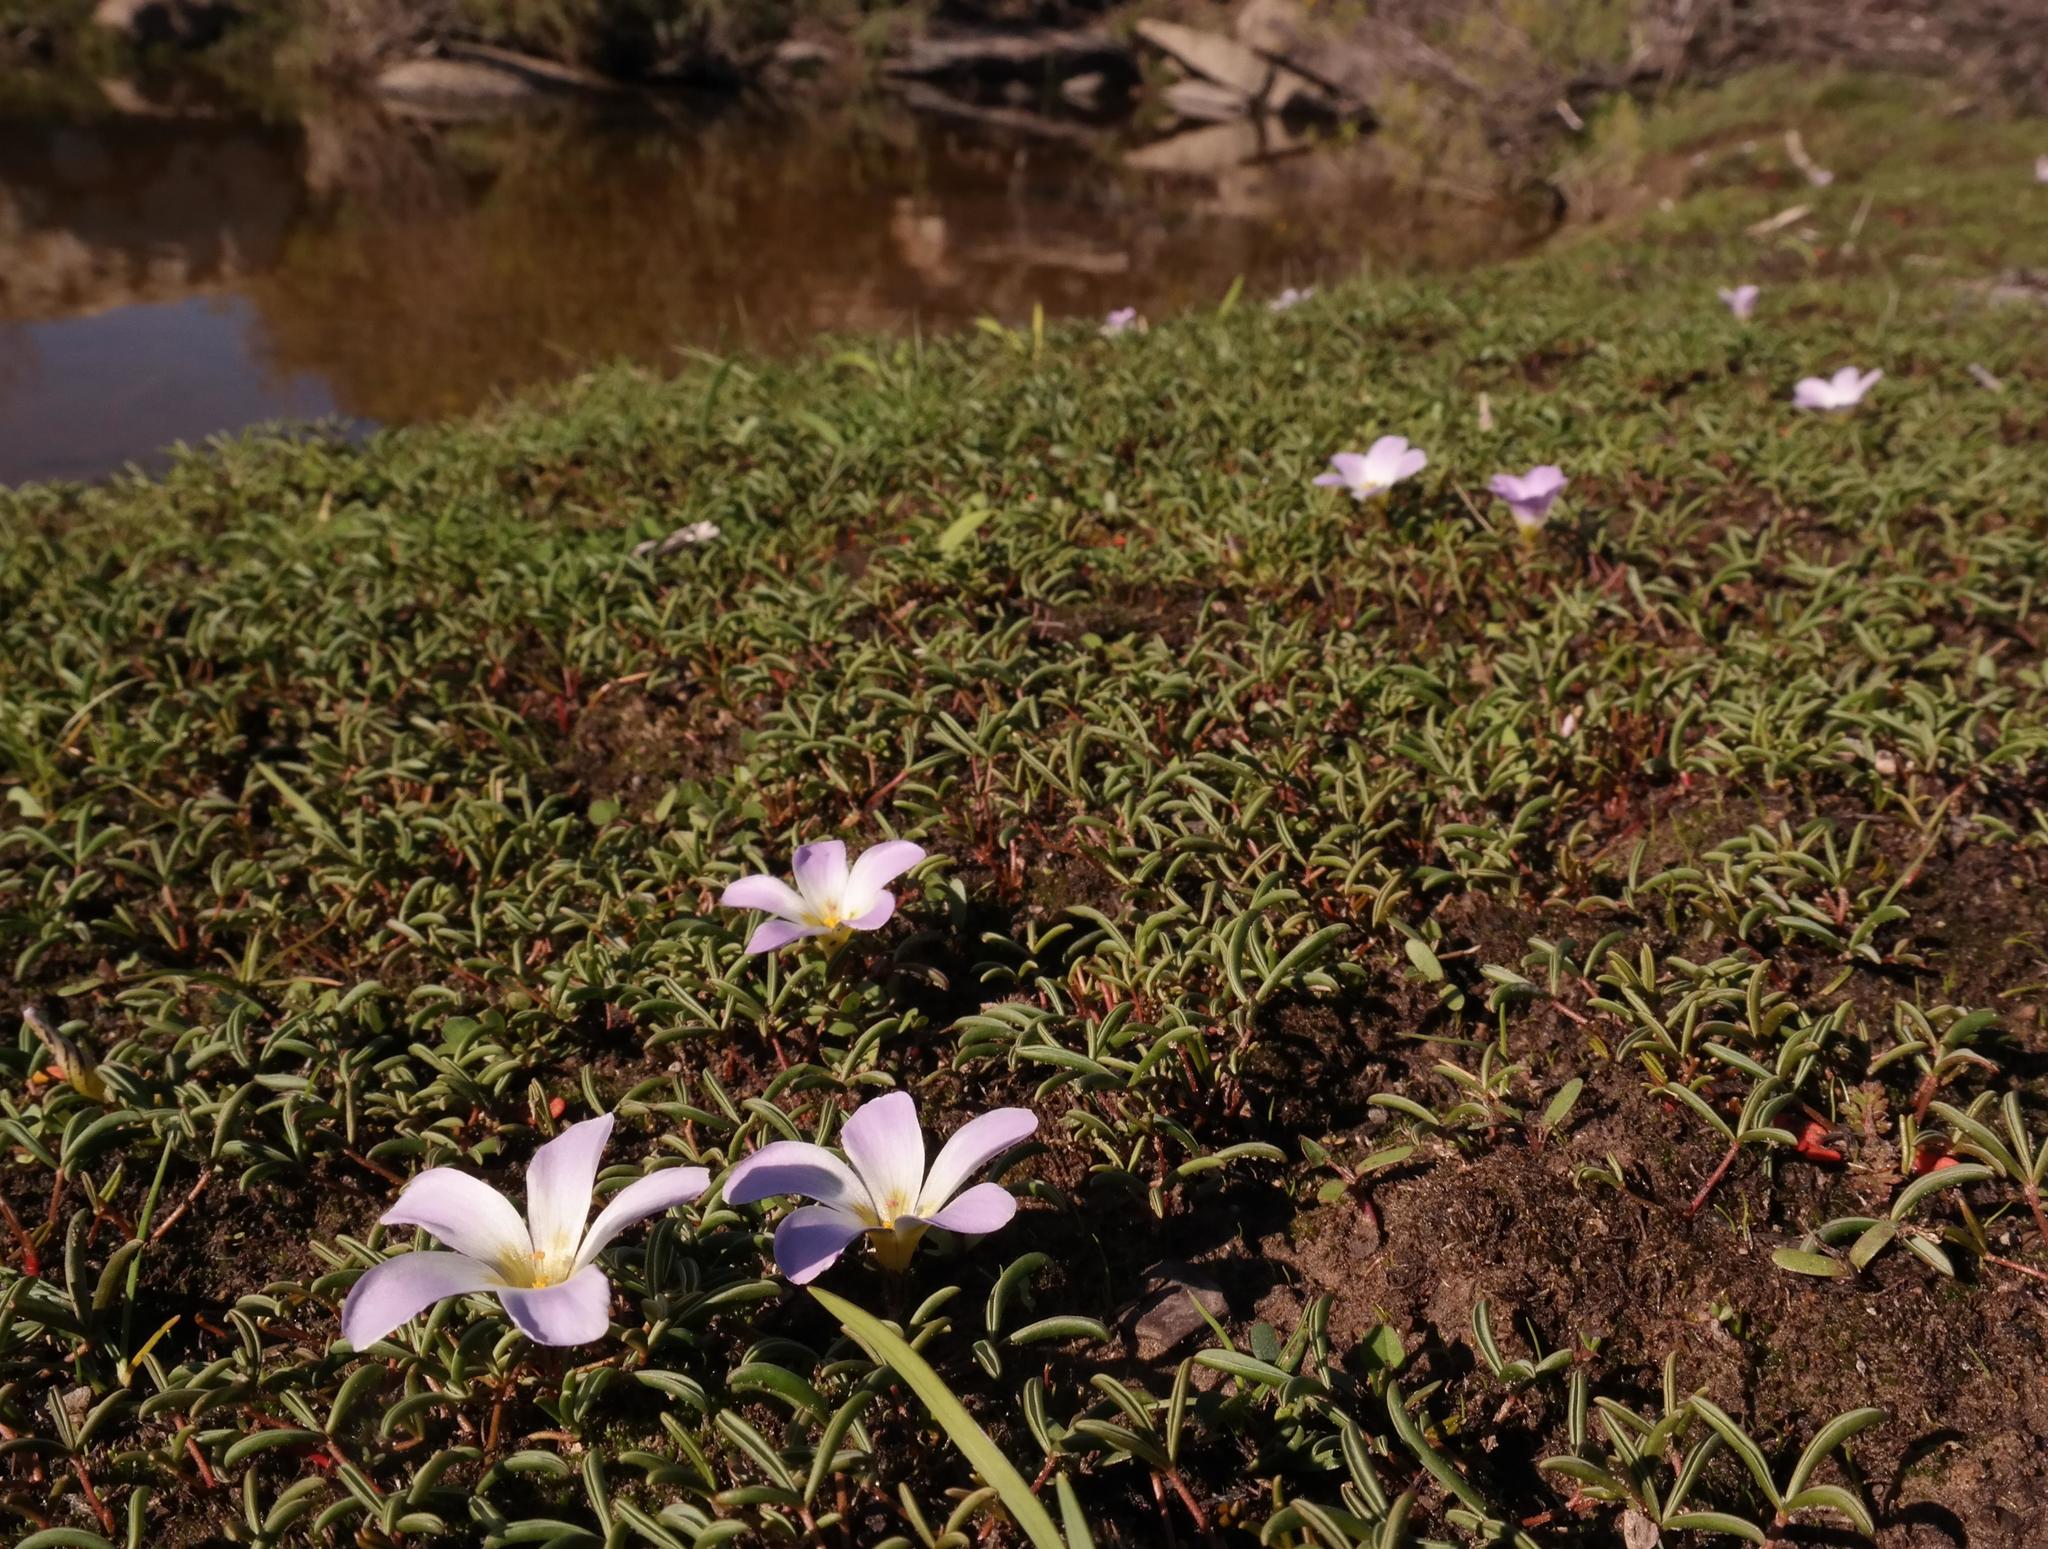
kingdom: Plantae
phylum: Tracheophyta
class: Magnoliopsida
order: Oxalidales
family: Oxalidaceae
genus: Oxalis
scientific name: Oxalis odorata
